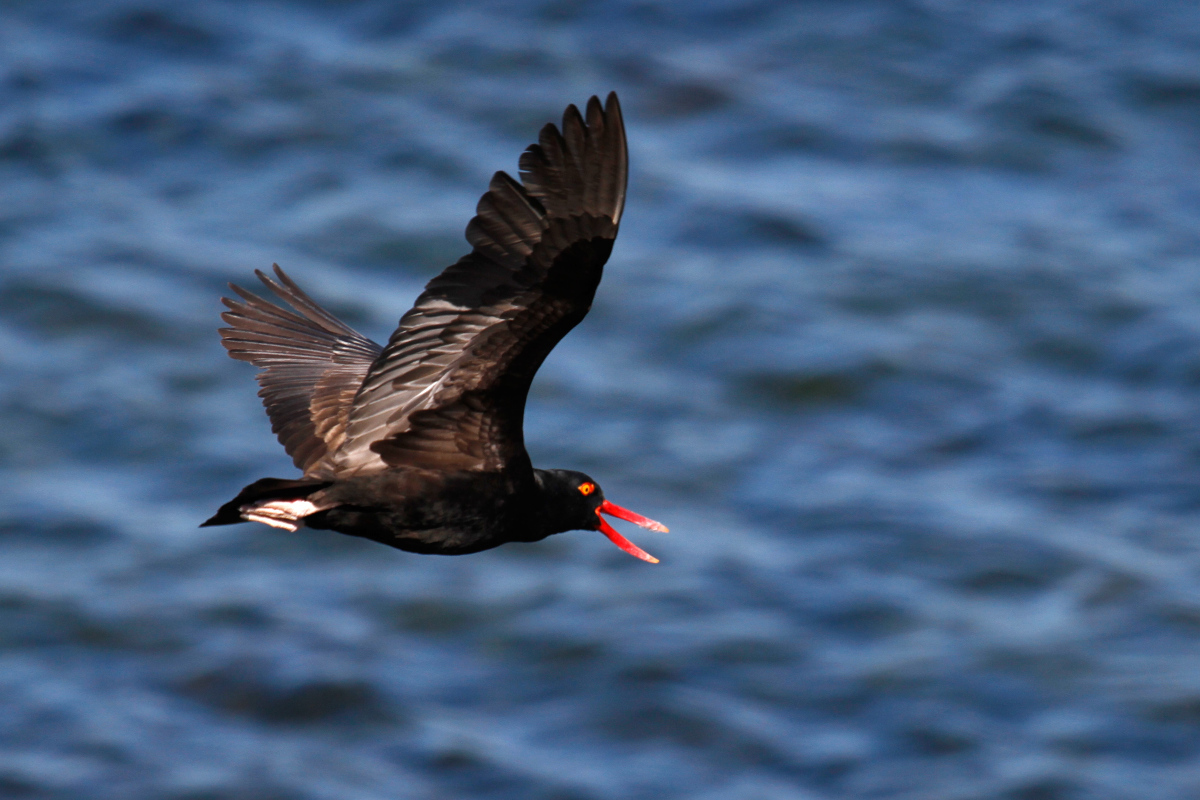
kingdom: Animalia
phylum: Chordata
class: Aves
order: Charadriiformes
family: Haematopodidae
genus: Haematopus
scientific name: Haematopus ater
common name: Blackish oystercatcher
